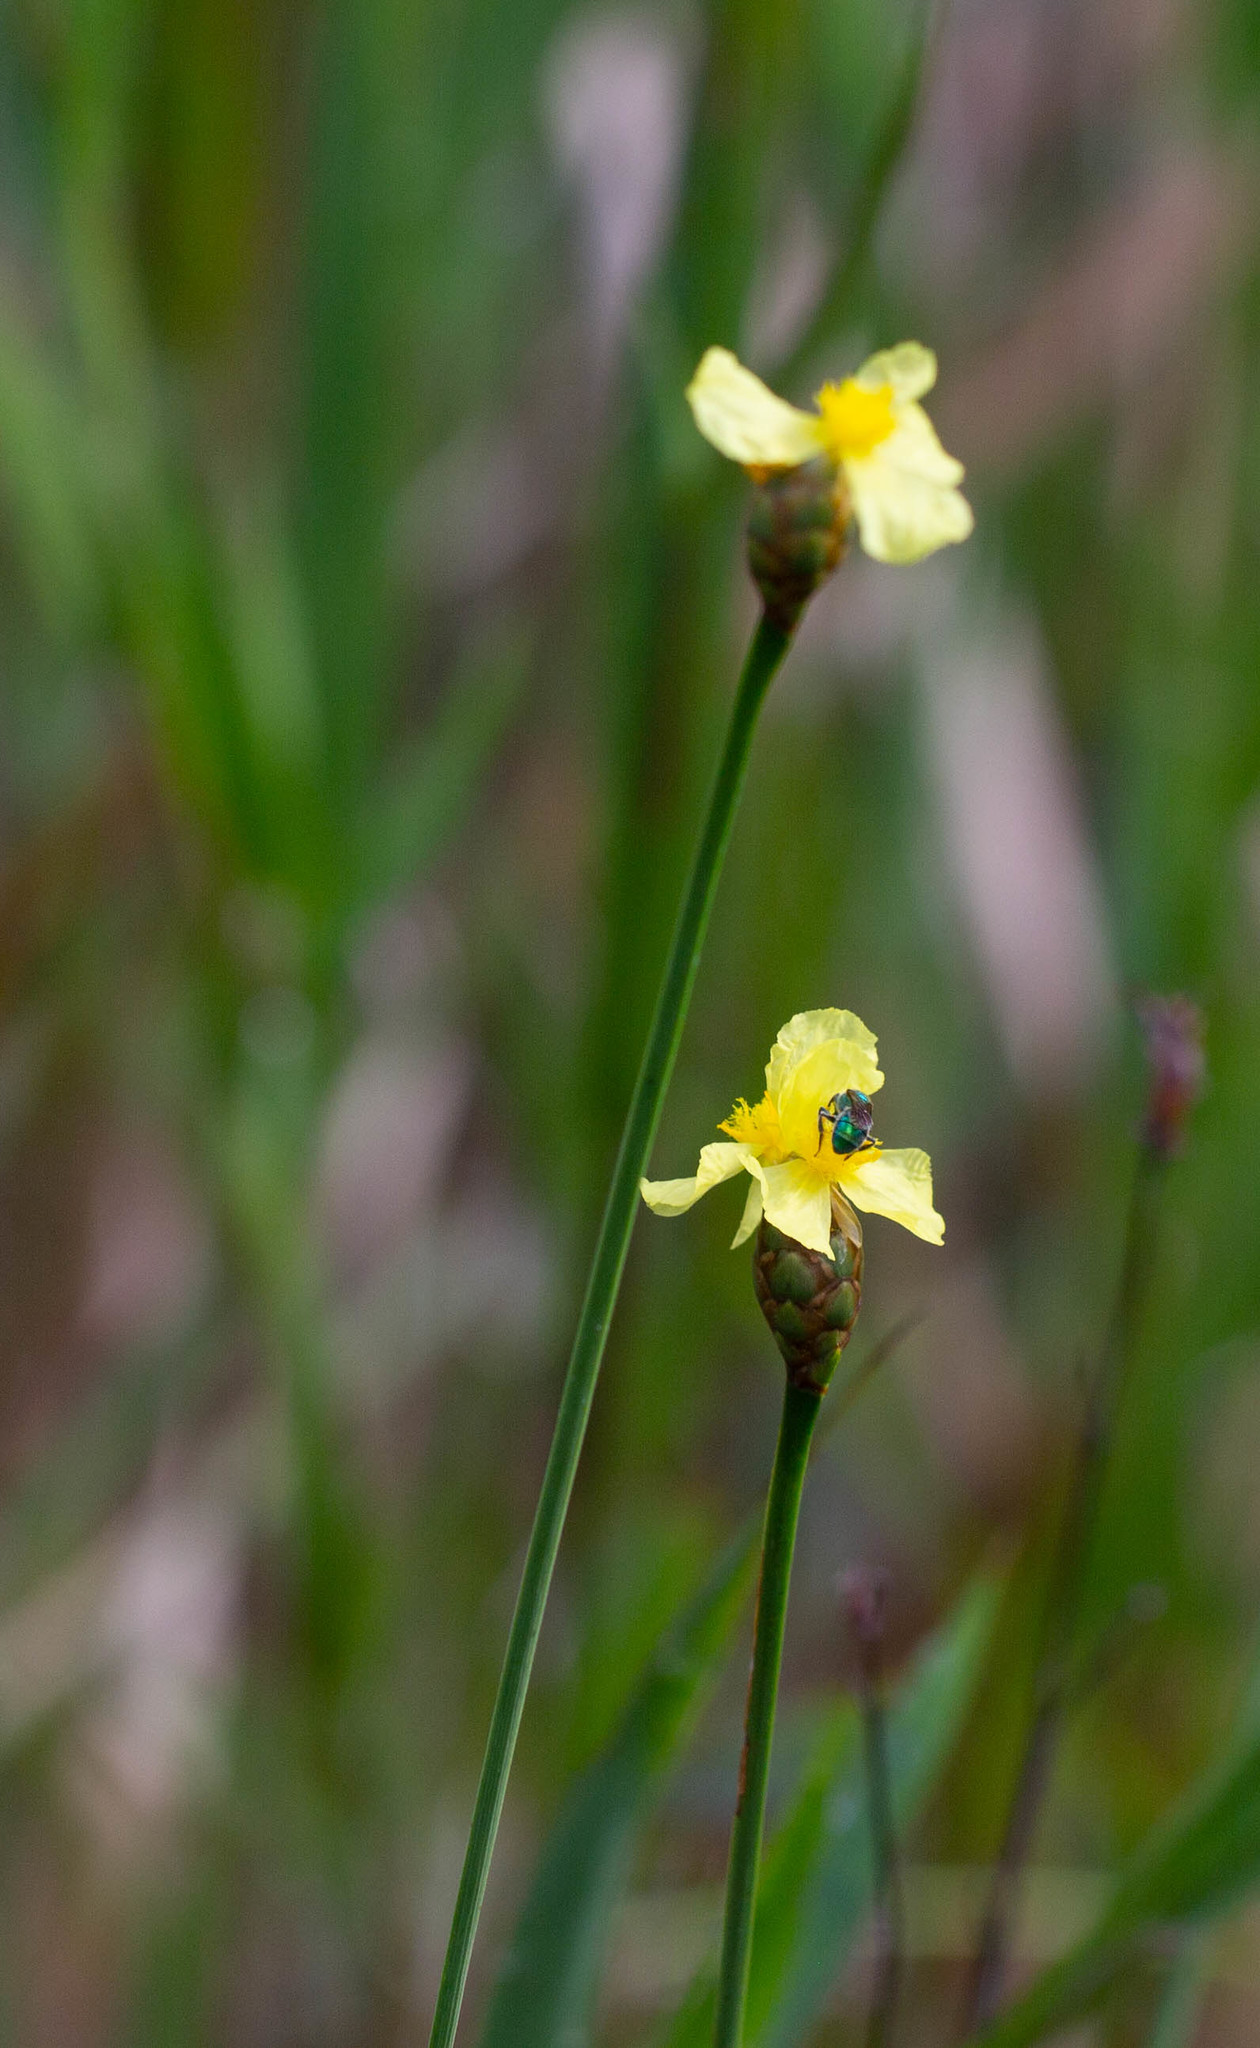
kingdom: Plantae
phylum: Tracheophyta
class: Liliopsida
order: Poales
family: Xyridaceae
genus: Xyris
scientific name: Xyris ambigua
